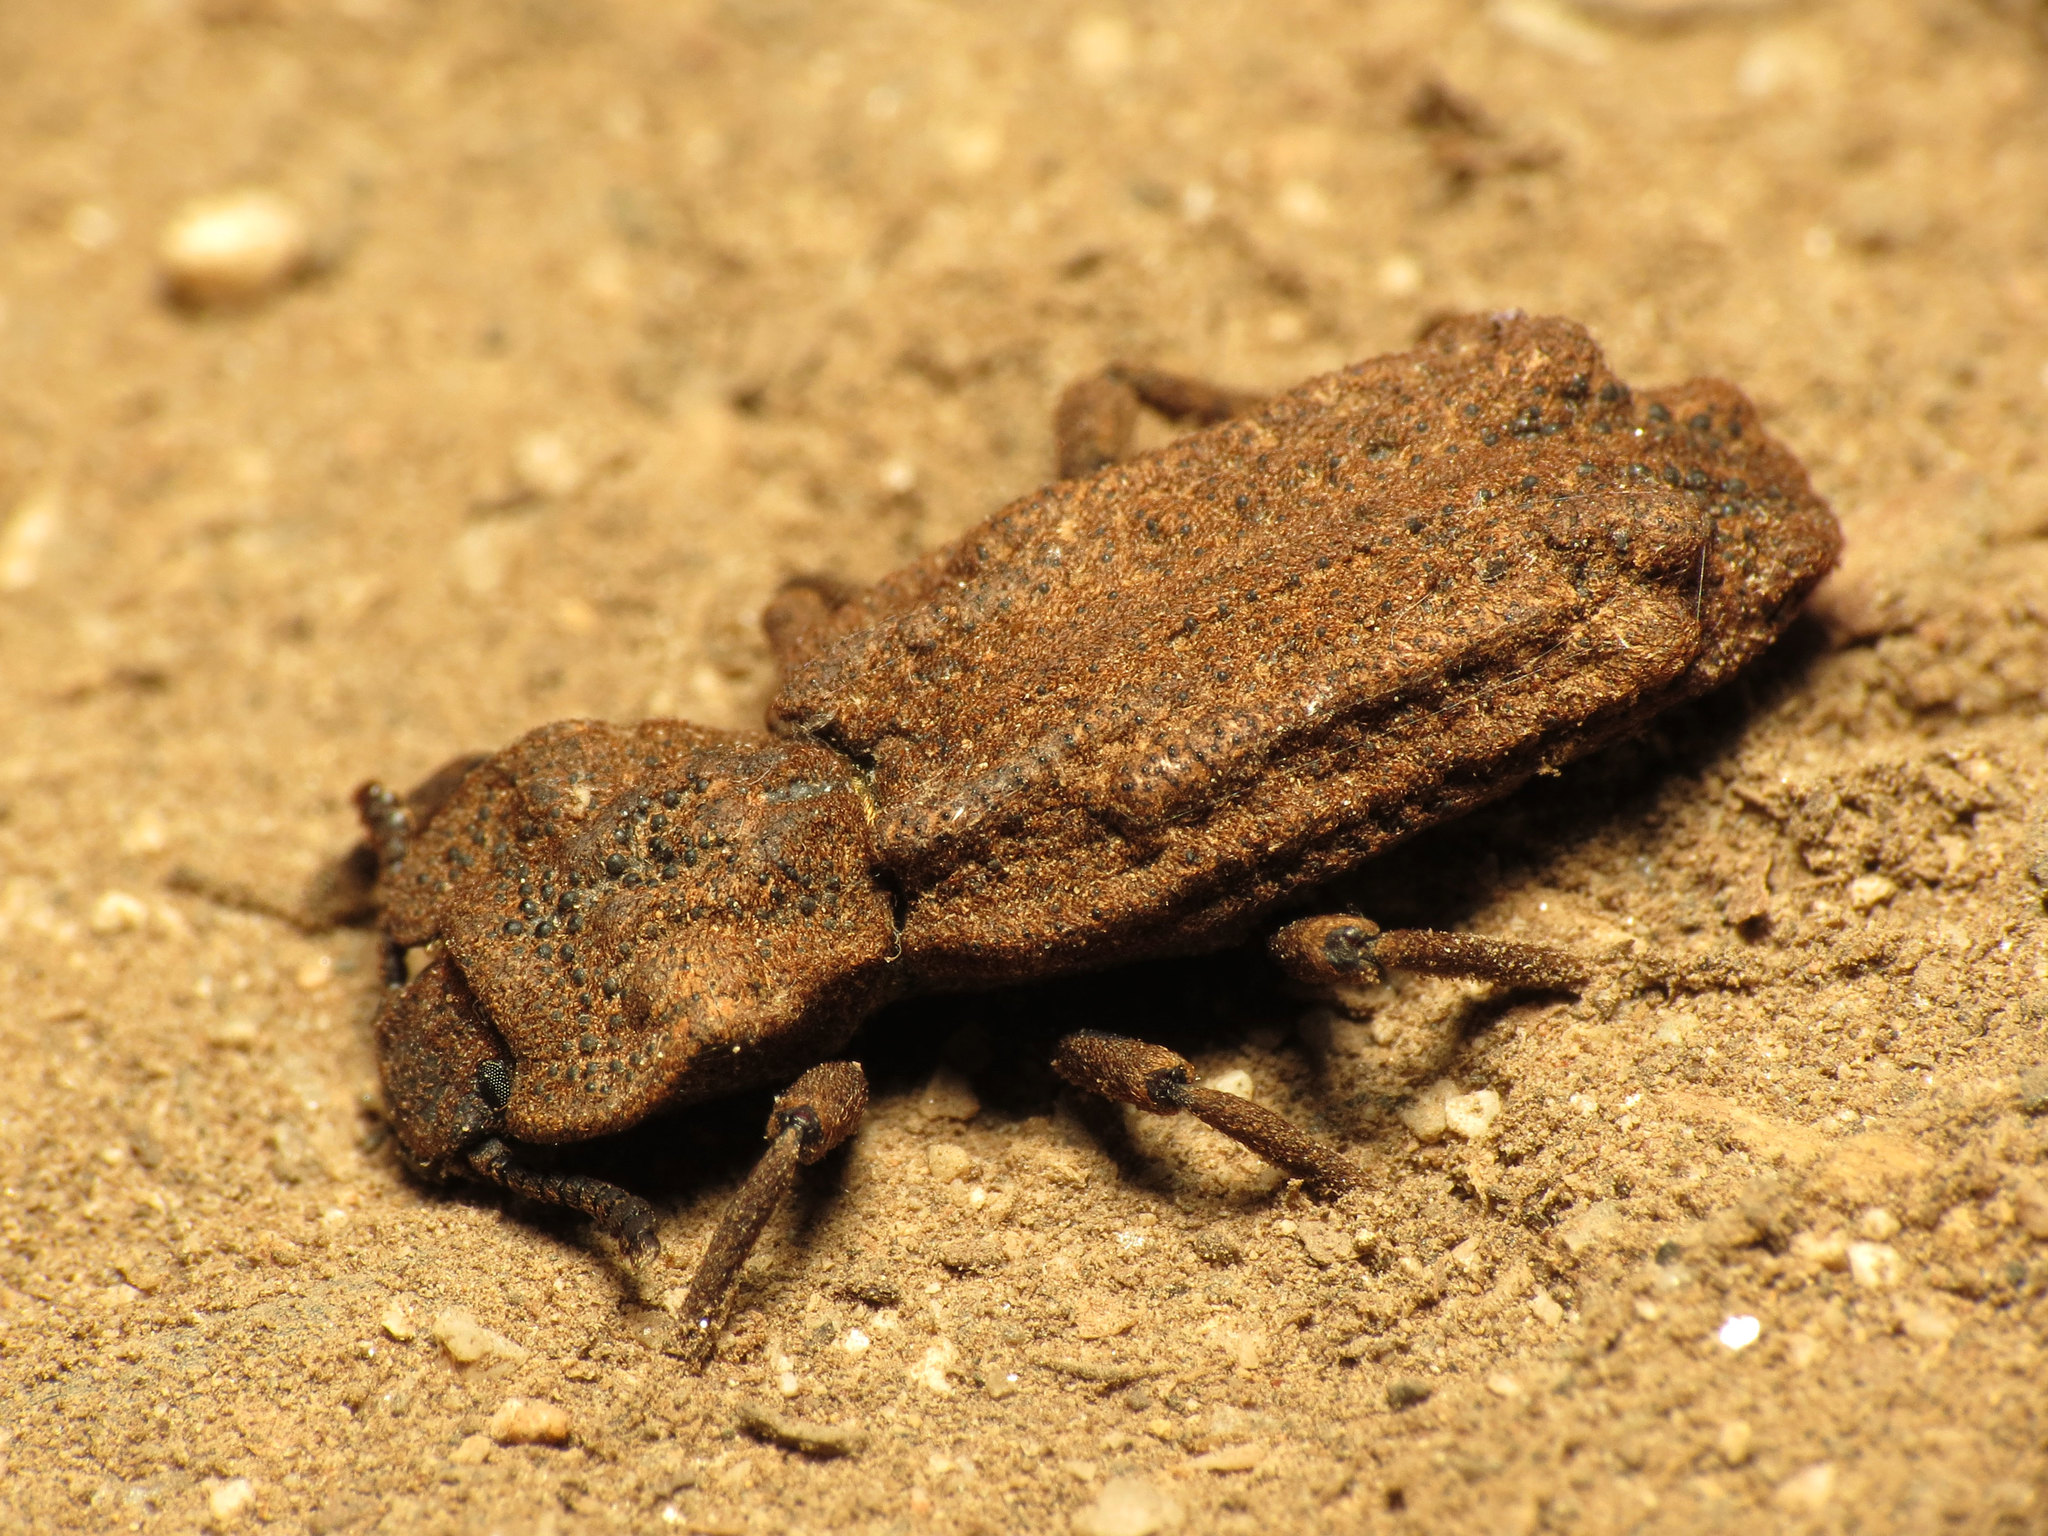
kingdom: Animalia
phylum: Arthropoda
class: Insecta
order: Coleoptera
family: Zopheridae
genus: Phellopsis
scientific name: Phellopsis porcata
